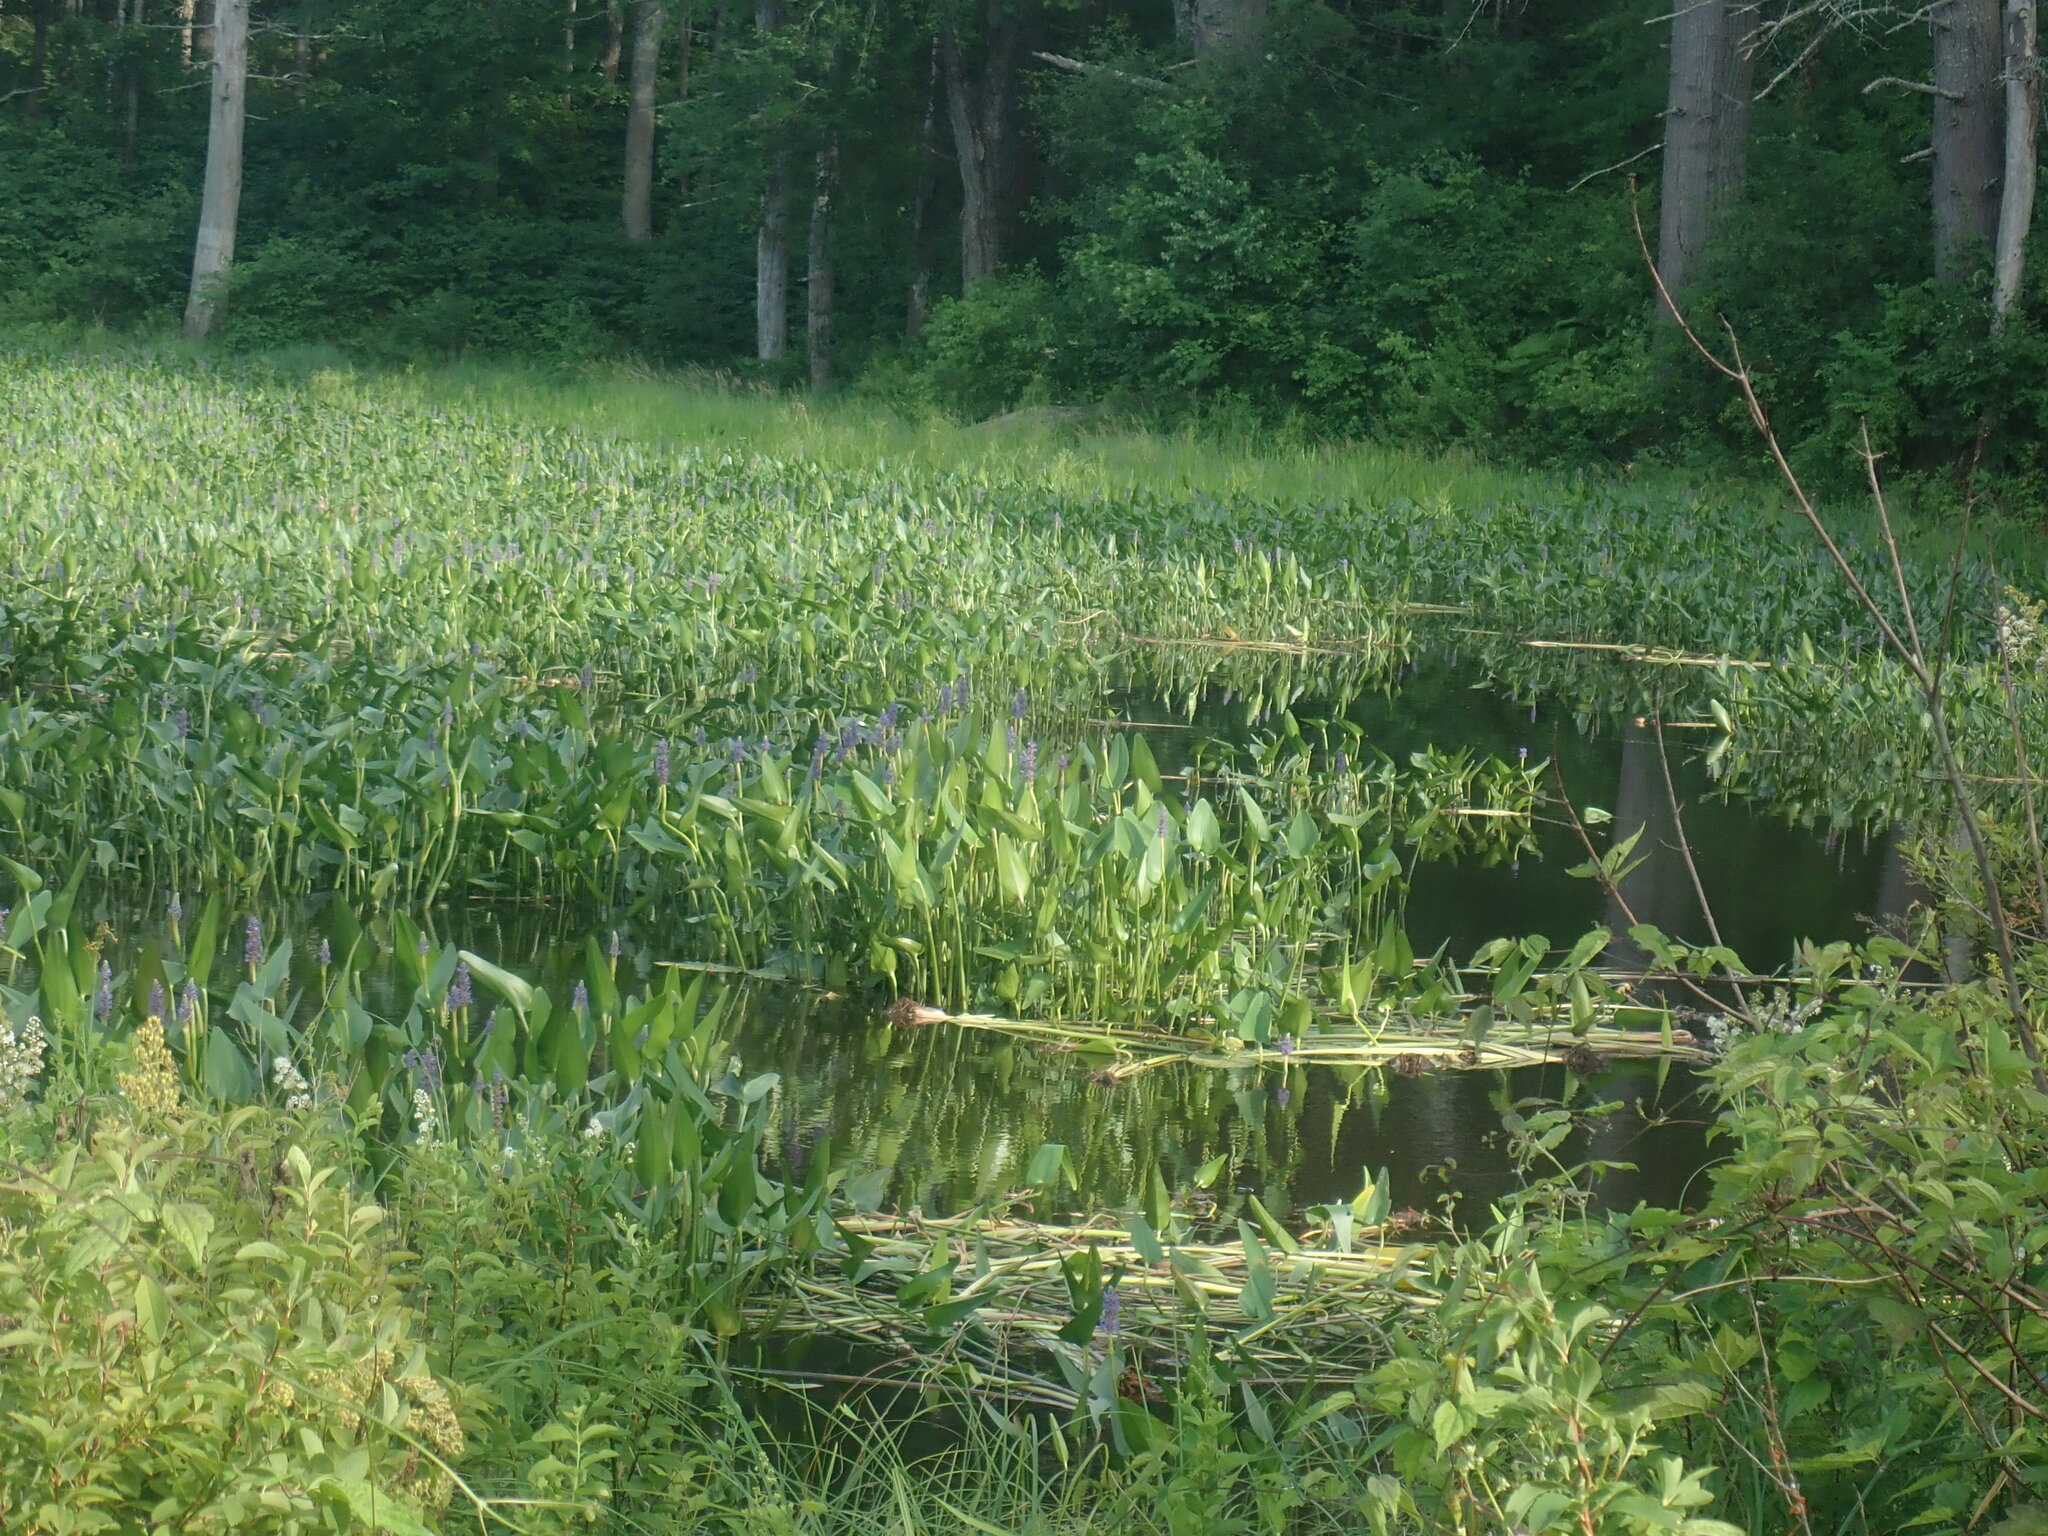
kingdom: Plantae
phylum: Tracheophyta
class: Liliopsida
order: Commelinales
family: Pontederiaceae
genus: Pontederia
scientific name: Pontederia cordata
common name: Pickerelweed
